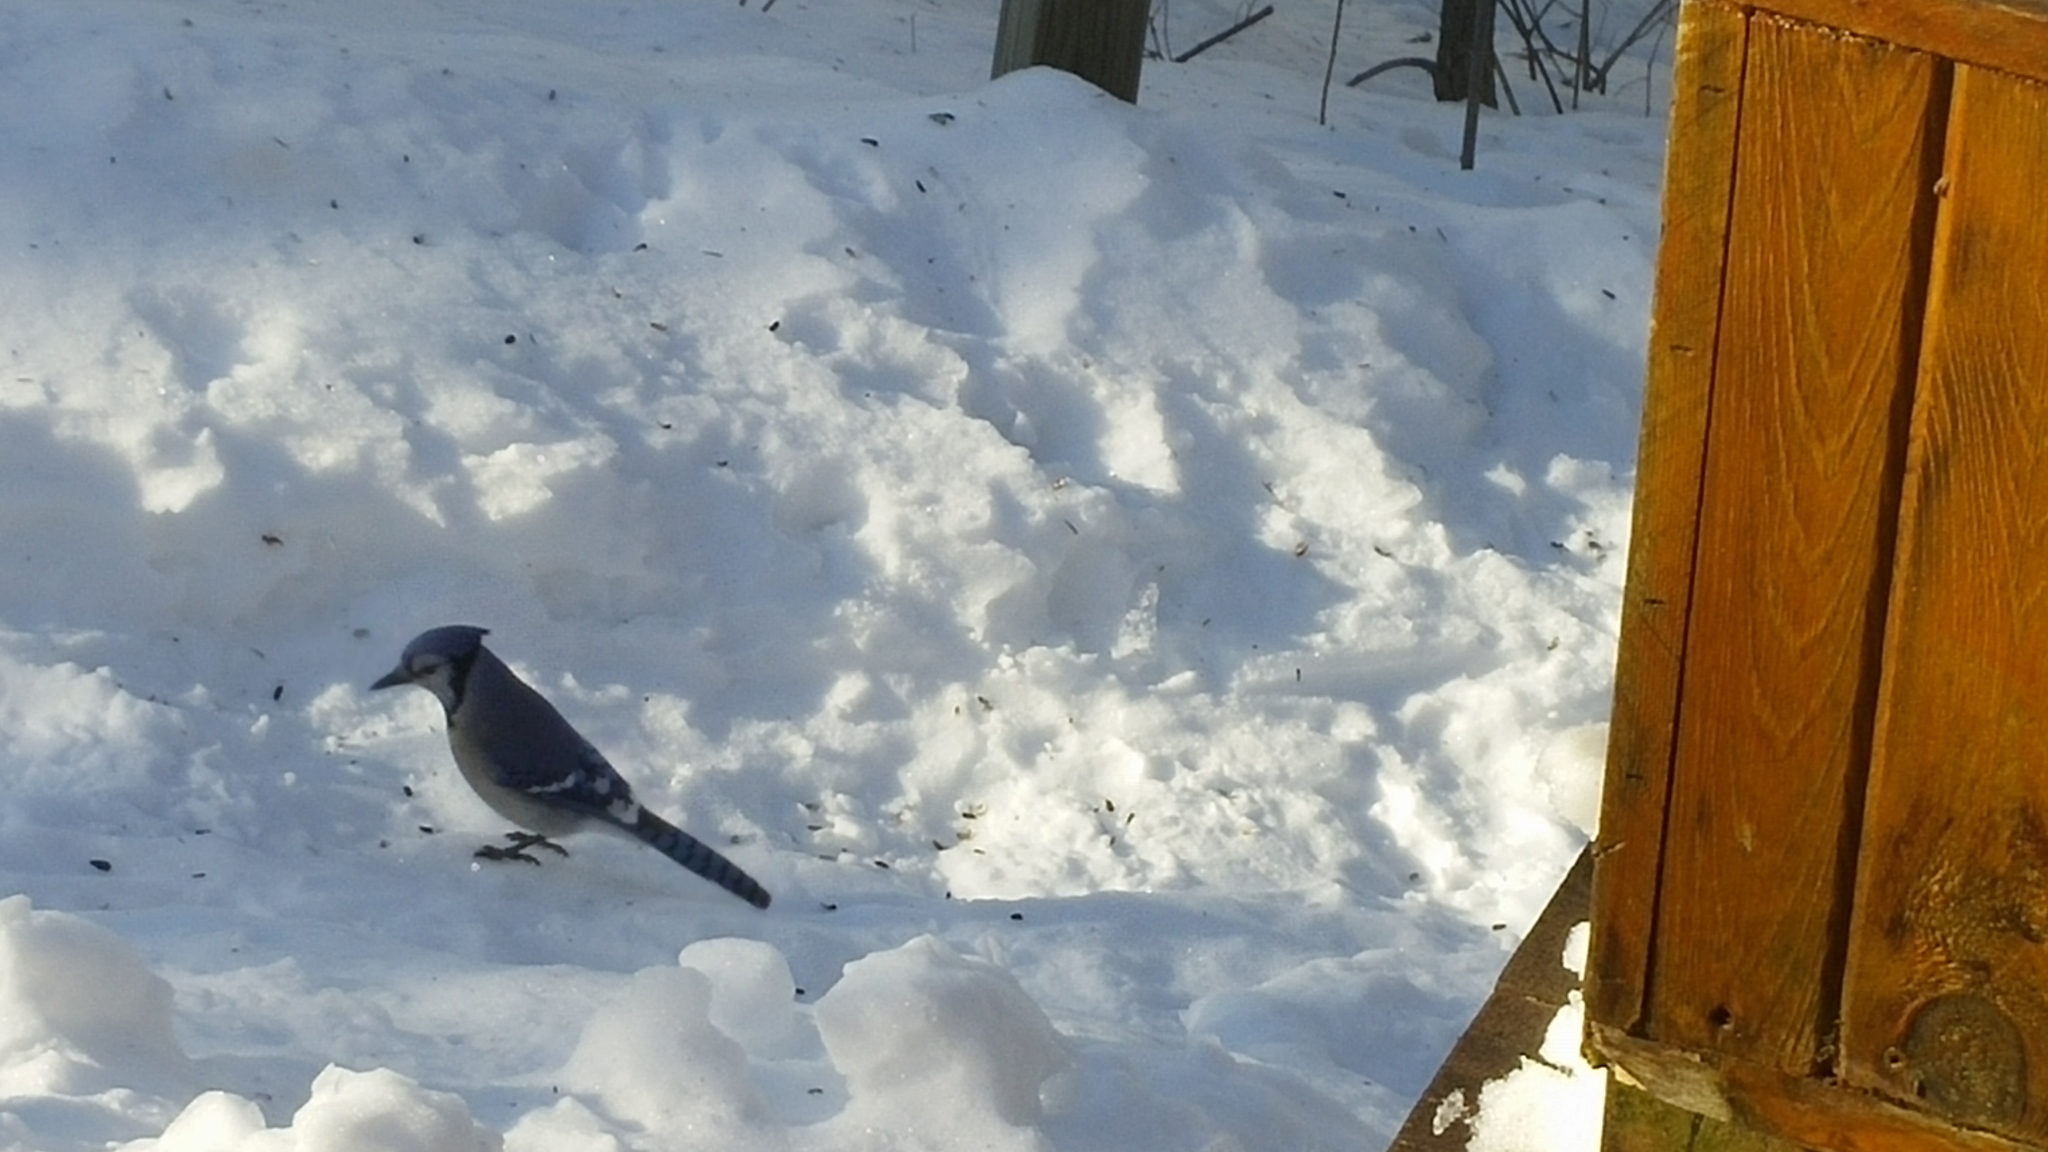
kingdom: Animalia
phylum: Chordata
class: Aves
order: Passeriformes
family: Corvidae
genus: Cyanocitta
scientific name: Cyanocitta cristata
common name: Blue jay
